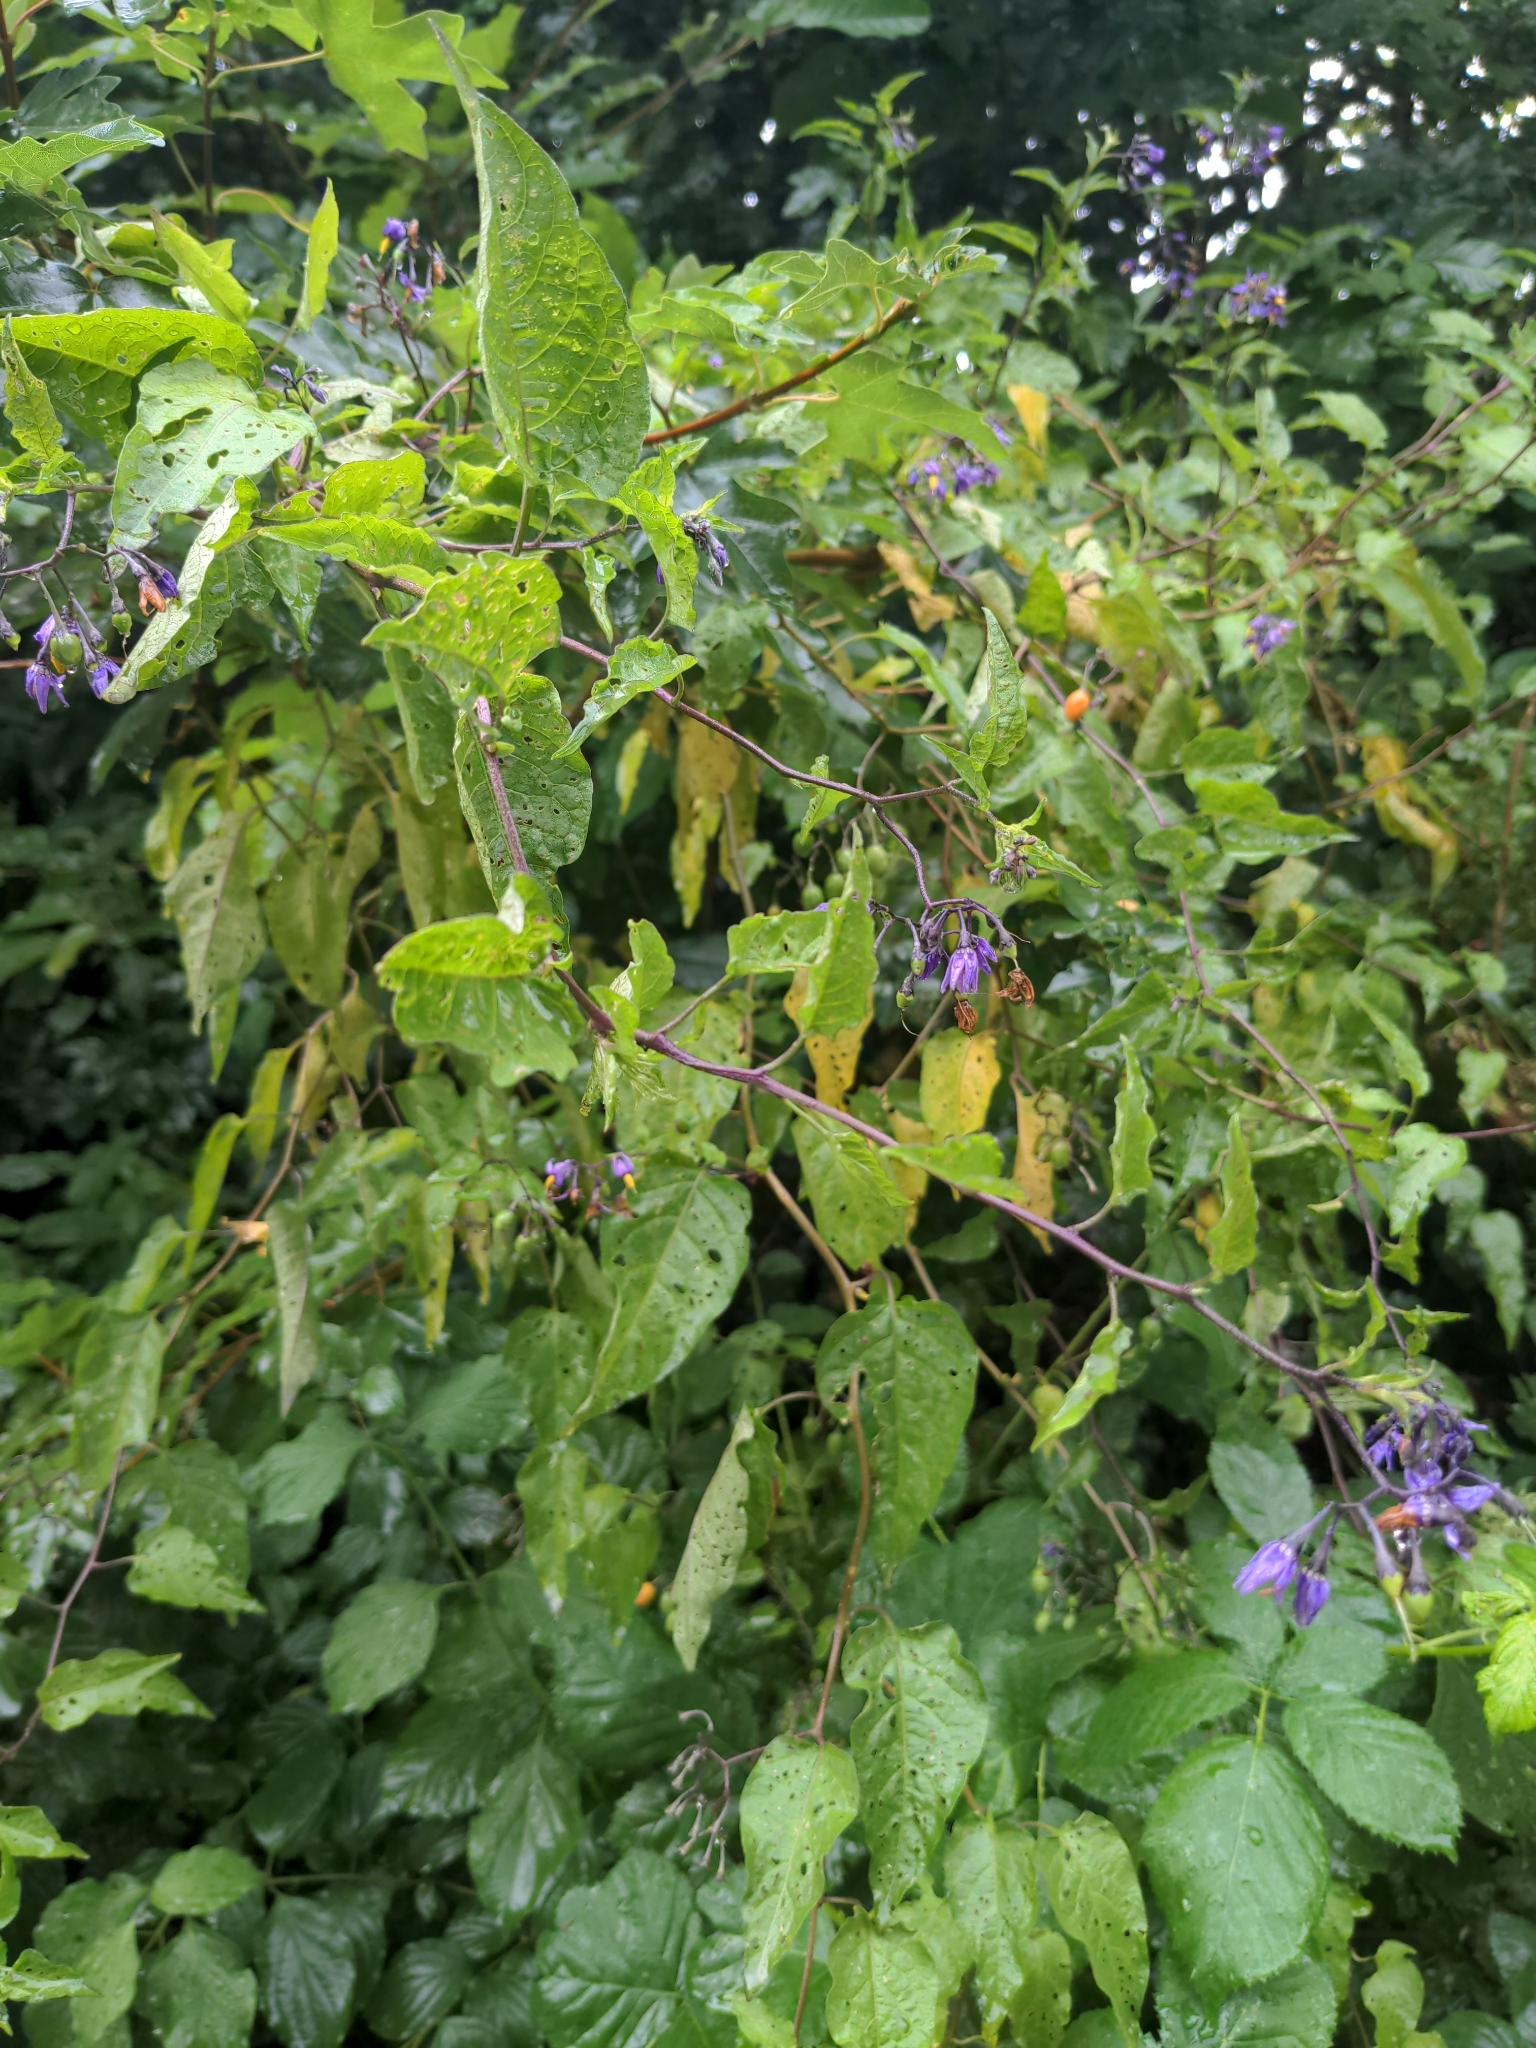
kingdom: Plantae
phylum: Tracheophyta
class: Magnoliopsida
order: Solanales
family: Solanaceae
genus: Solanum
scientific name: Solanum dulcamara
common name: Climbing nightshade
